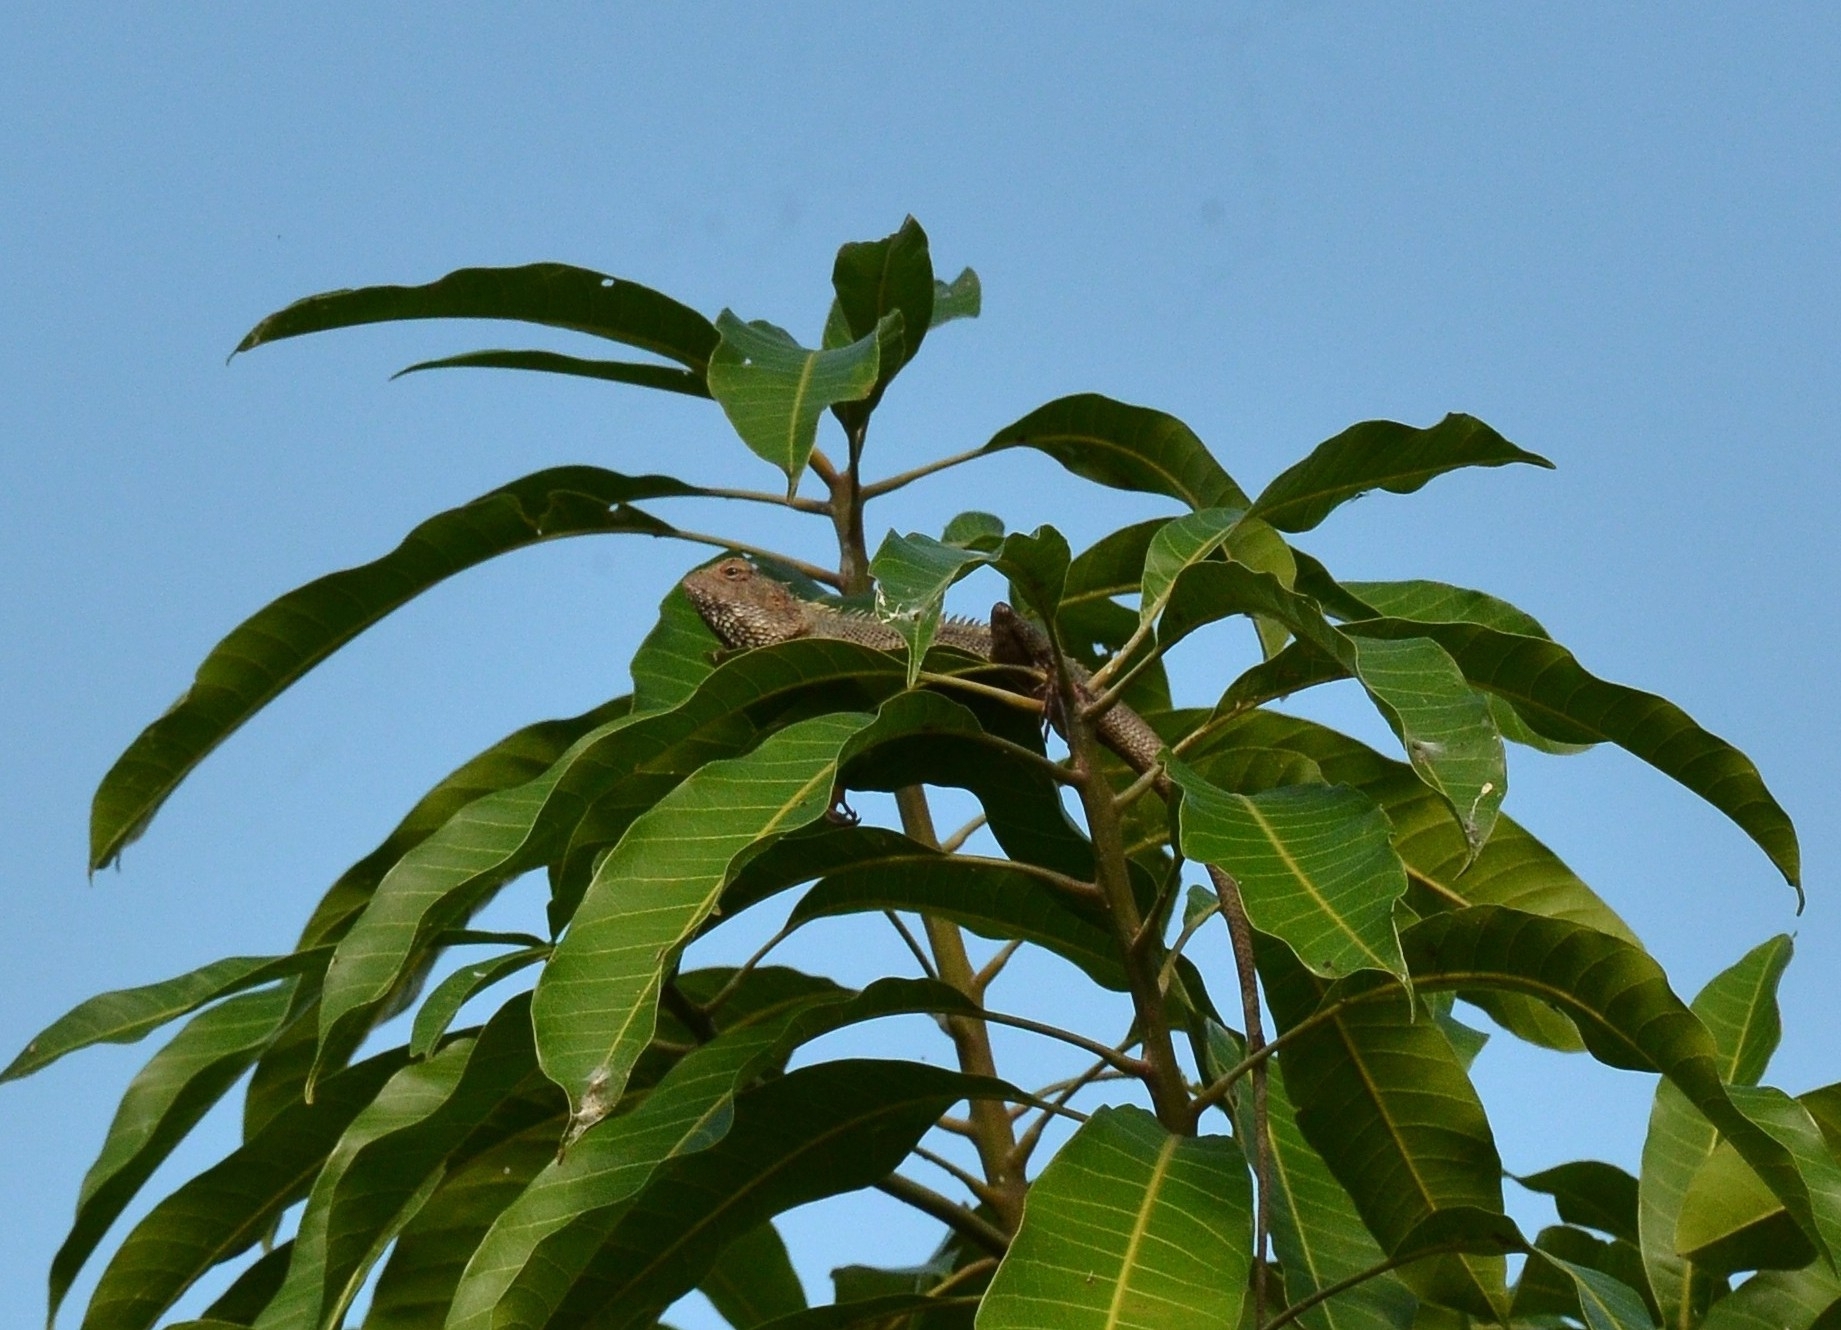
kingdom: Animalia
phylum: Chordata
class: Squamata
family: Agamidae
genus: Calotes
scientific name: Calotes versicolor
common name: Oriental garden lizard
